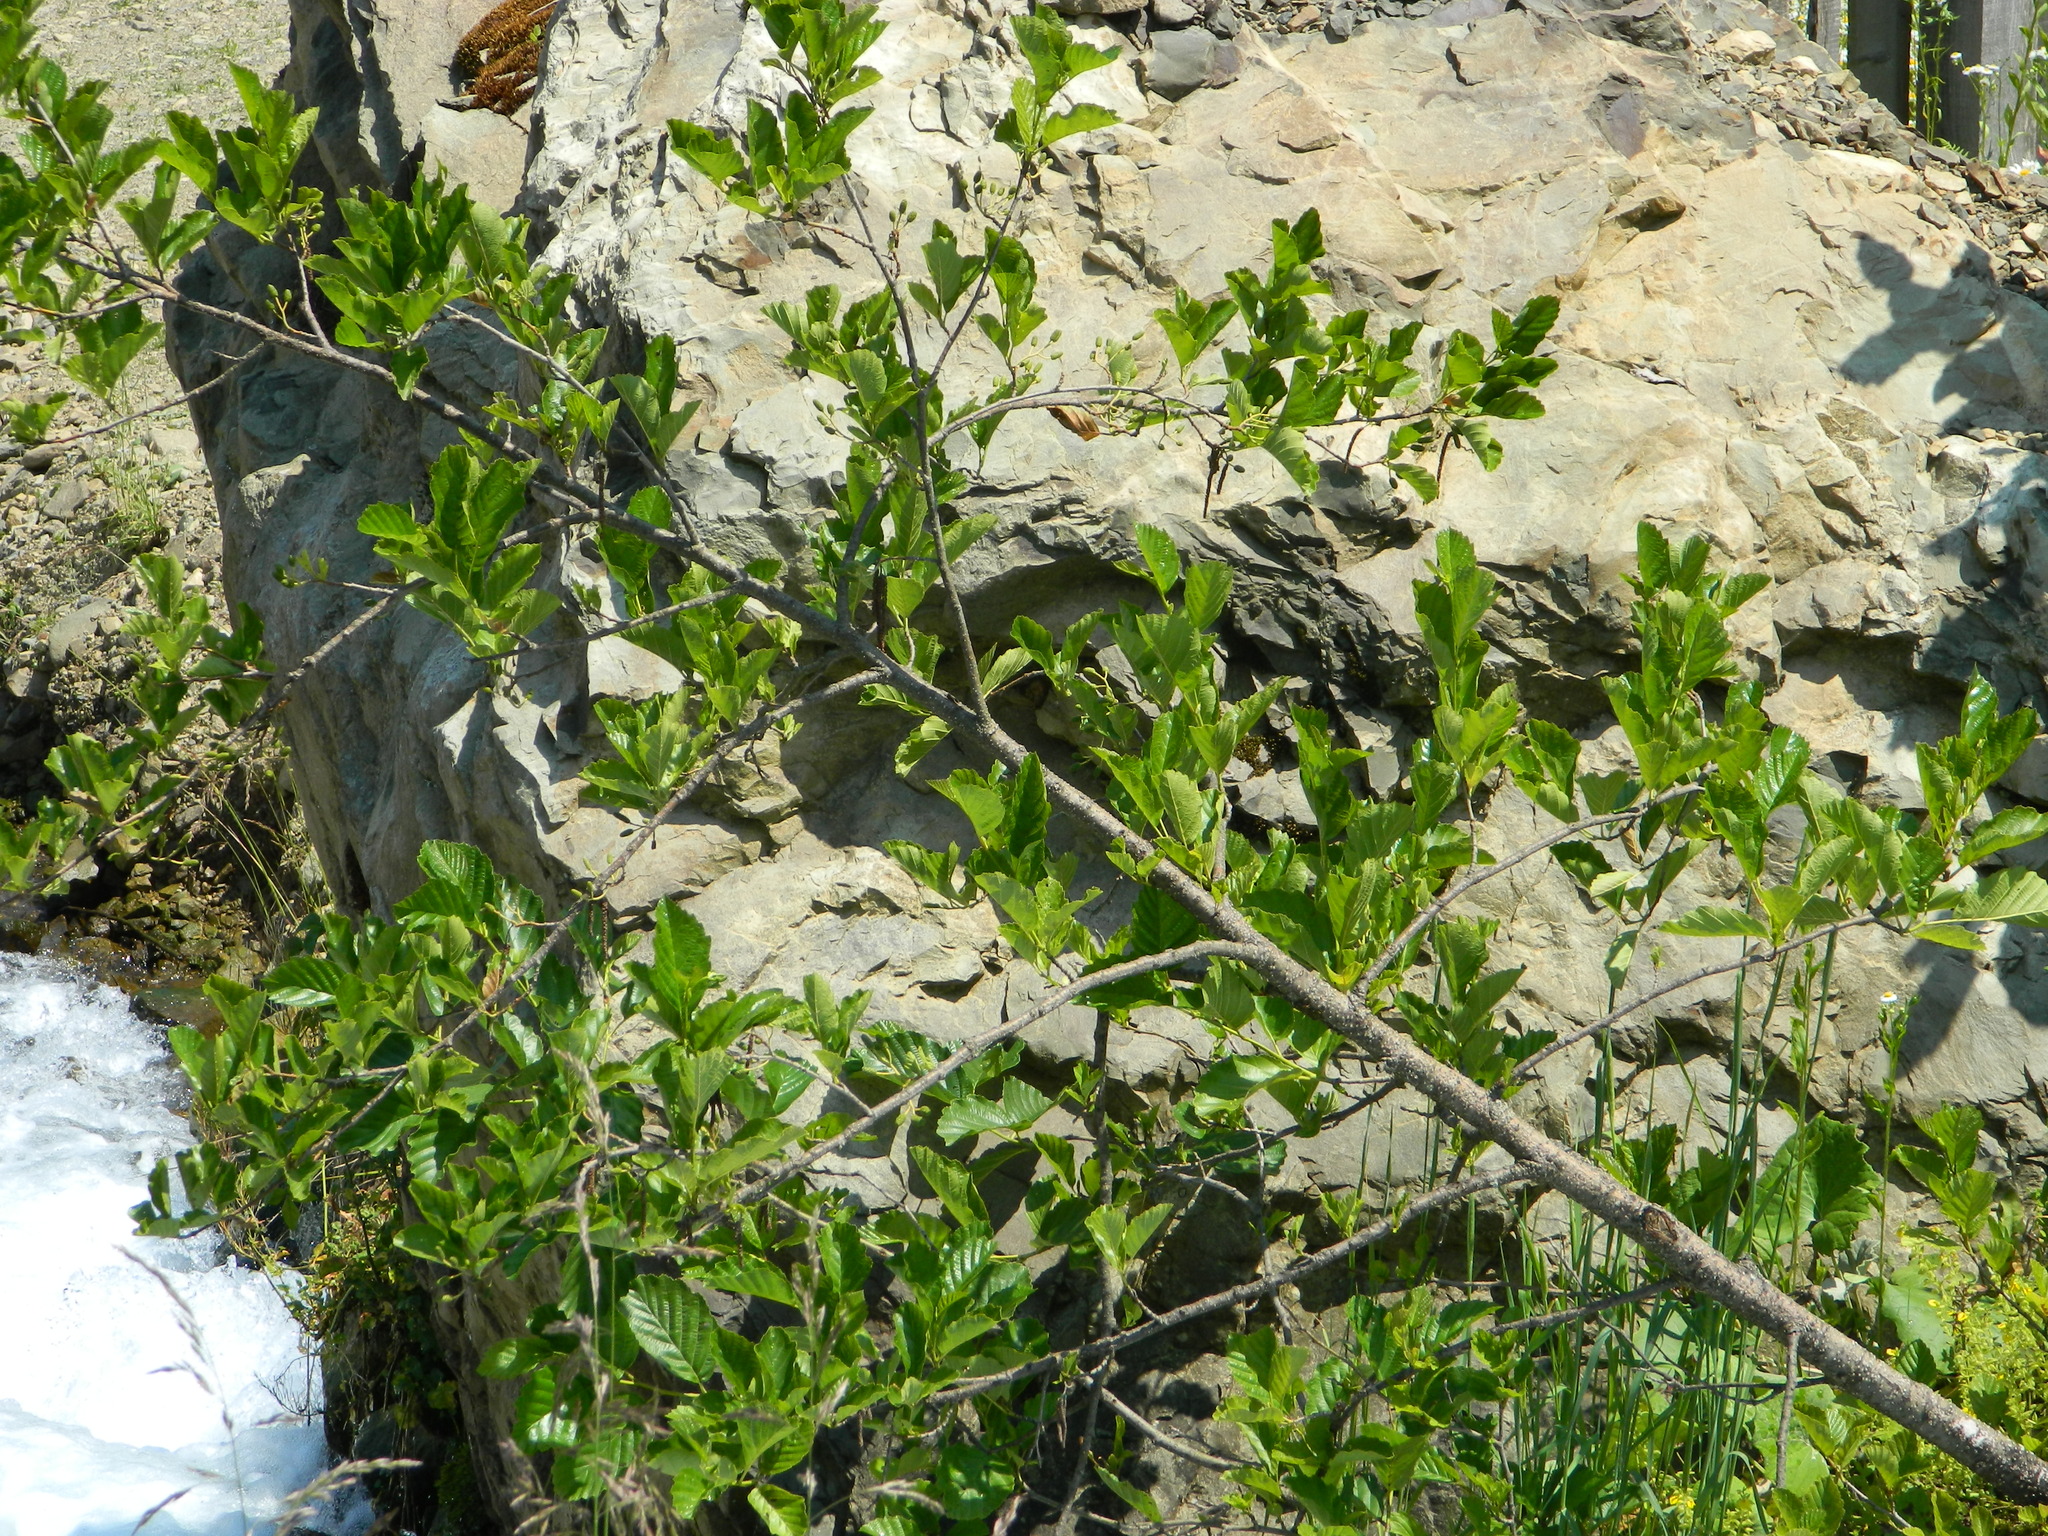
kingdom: Plantae
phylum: Tracheophyta
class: Magnoliopsida
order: Fagales
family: Betulaceae
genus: Alnus
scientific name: Alnus glutinosa
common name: Black alder
